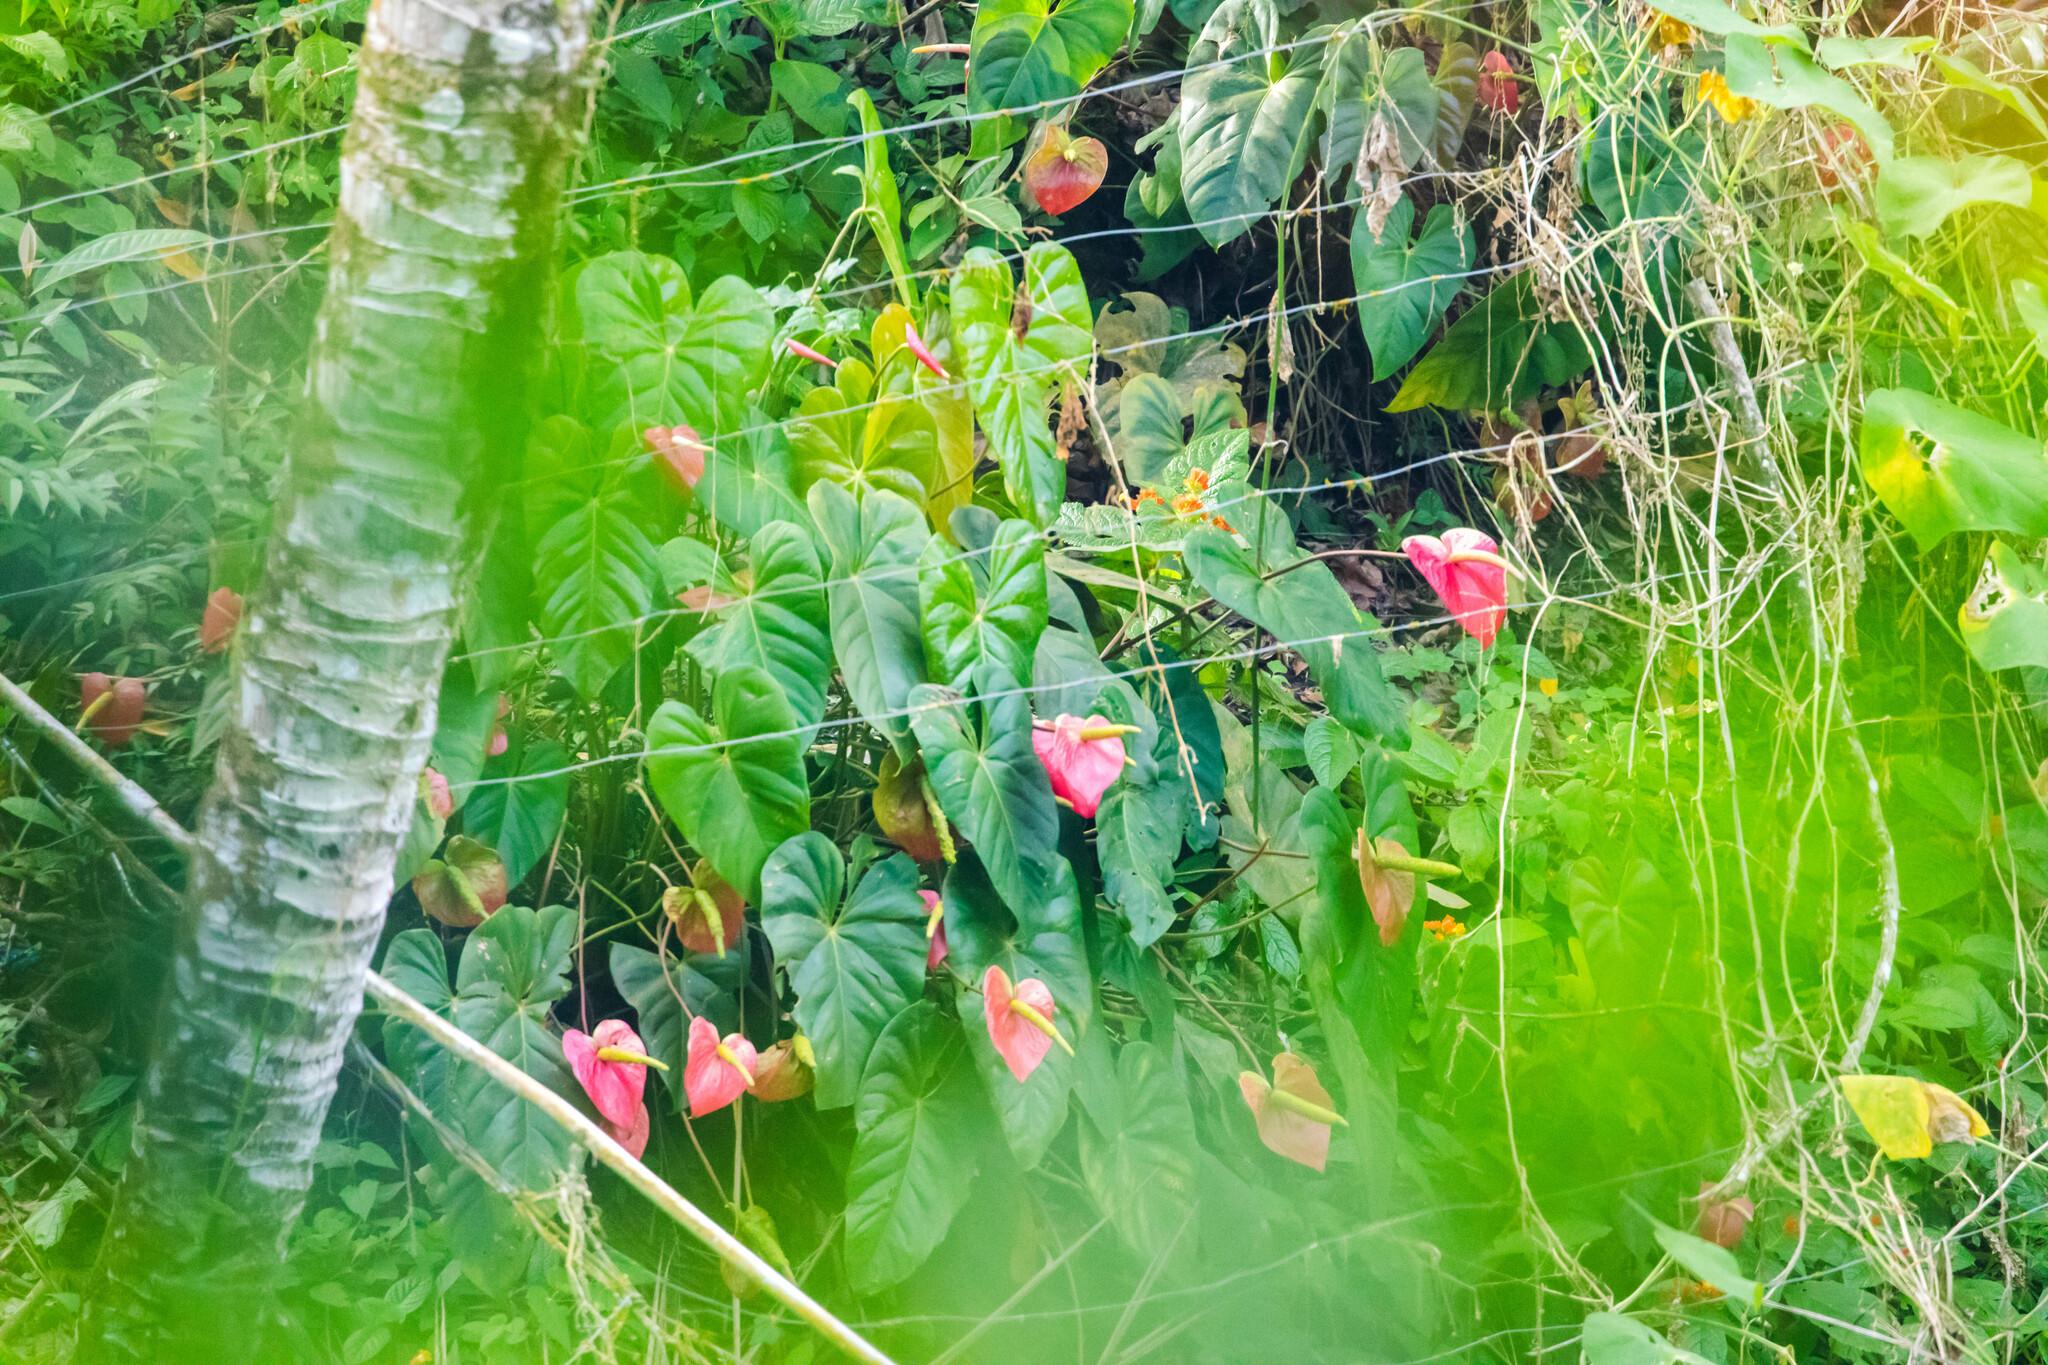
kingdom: Plantae
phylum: Tracheophyta
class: Liliopsida
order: Alismatales
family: Araceae
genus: Anthurium
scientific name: Anthurium andraeanum
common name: Flamingo-flower
